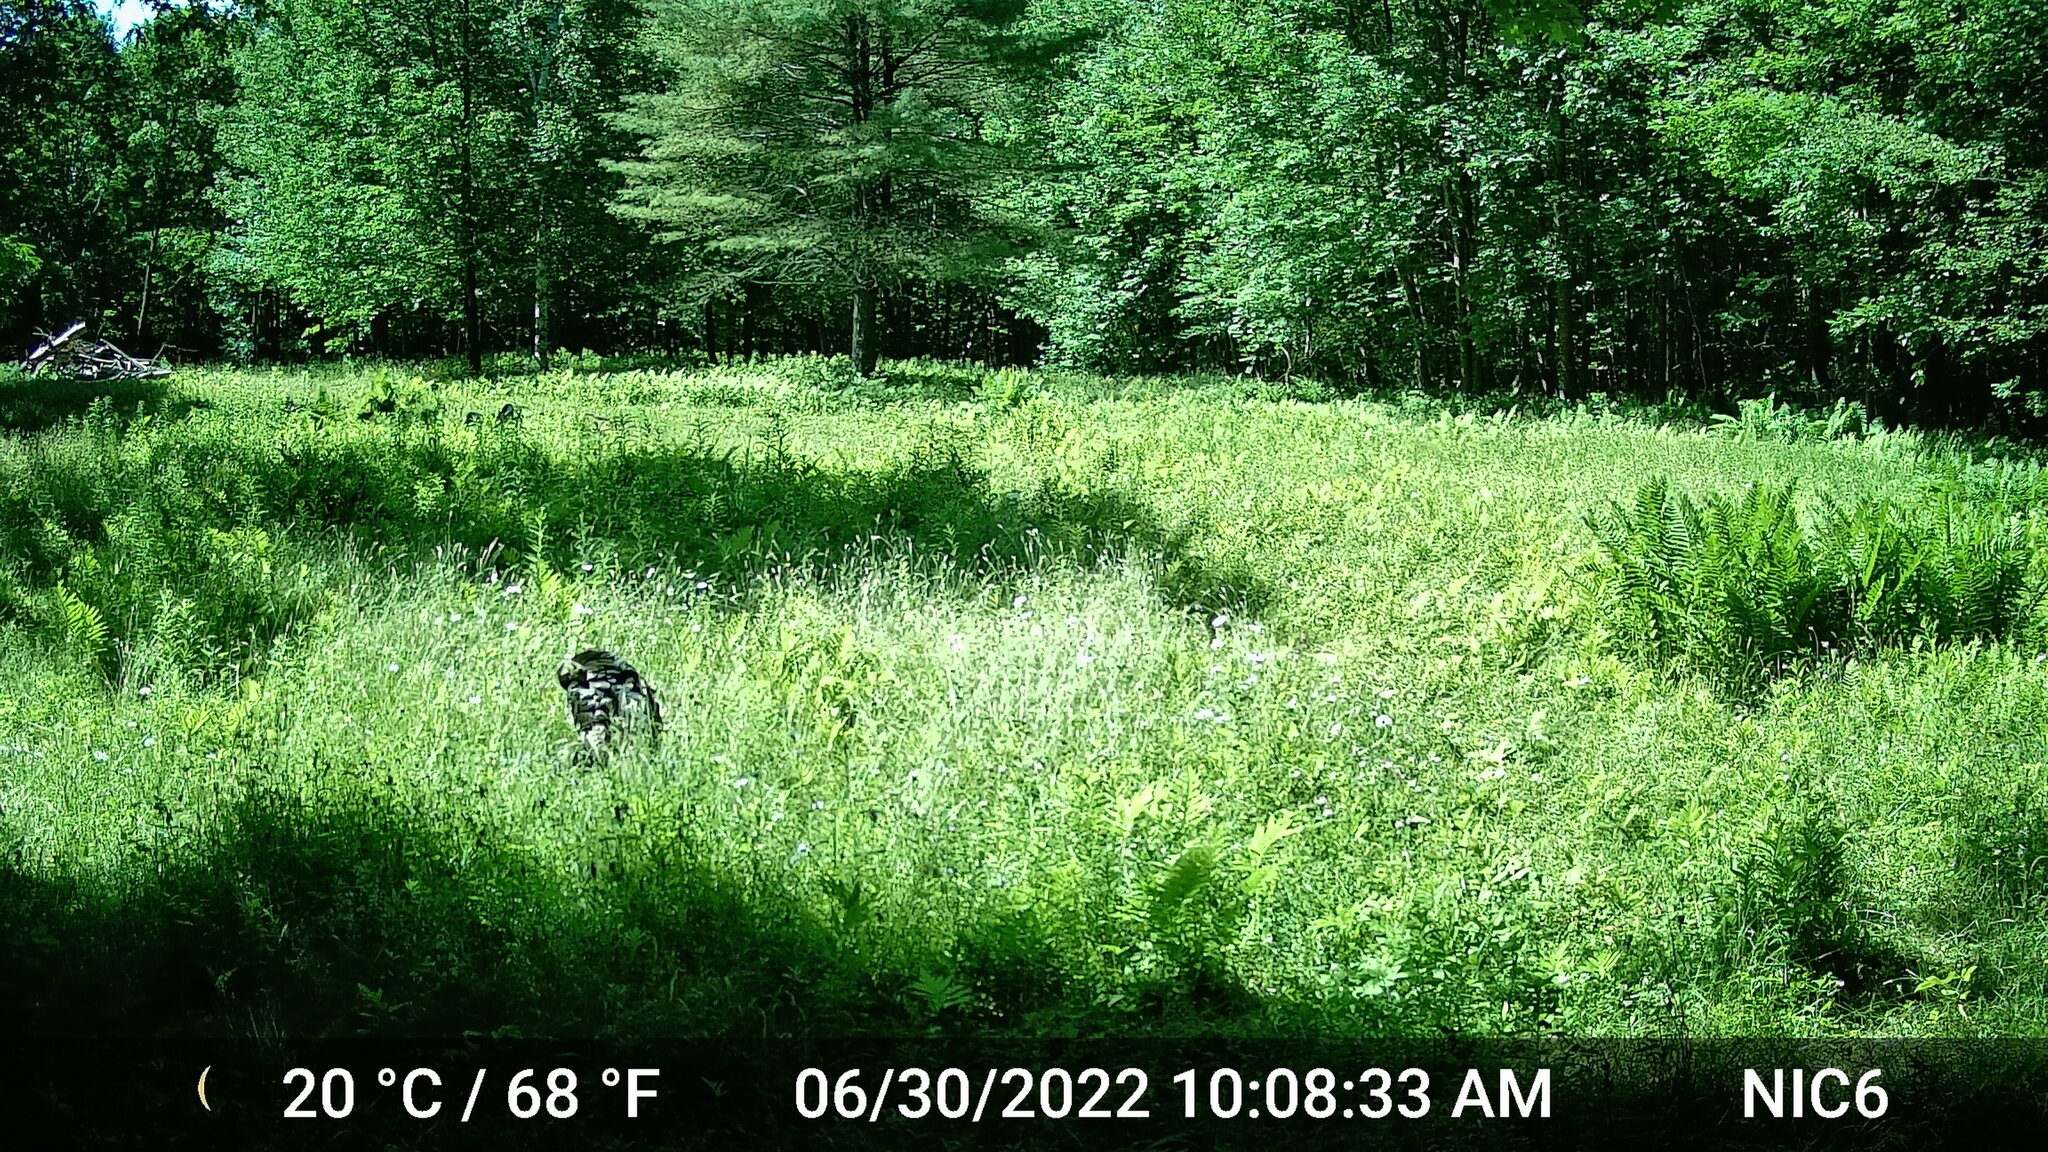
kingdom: Animalia
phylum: Chordata
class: Aves
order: Galliformes
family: Phasianidae
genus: Meleagris
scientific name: Meleagris gallopavo
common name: Wild turkey
